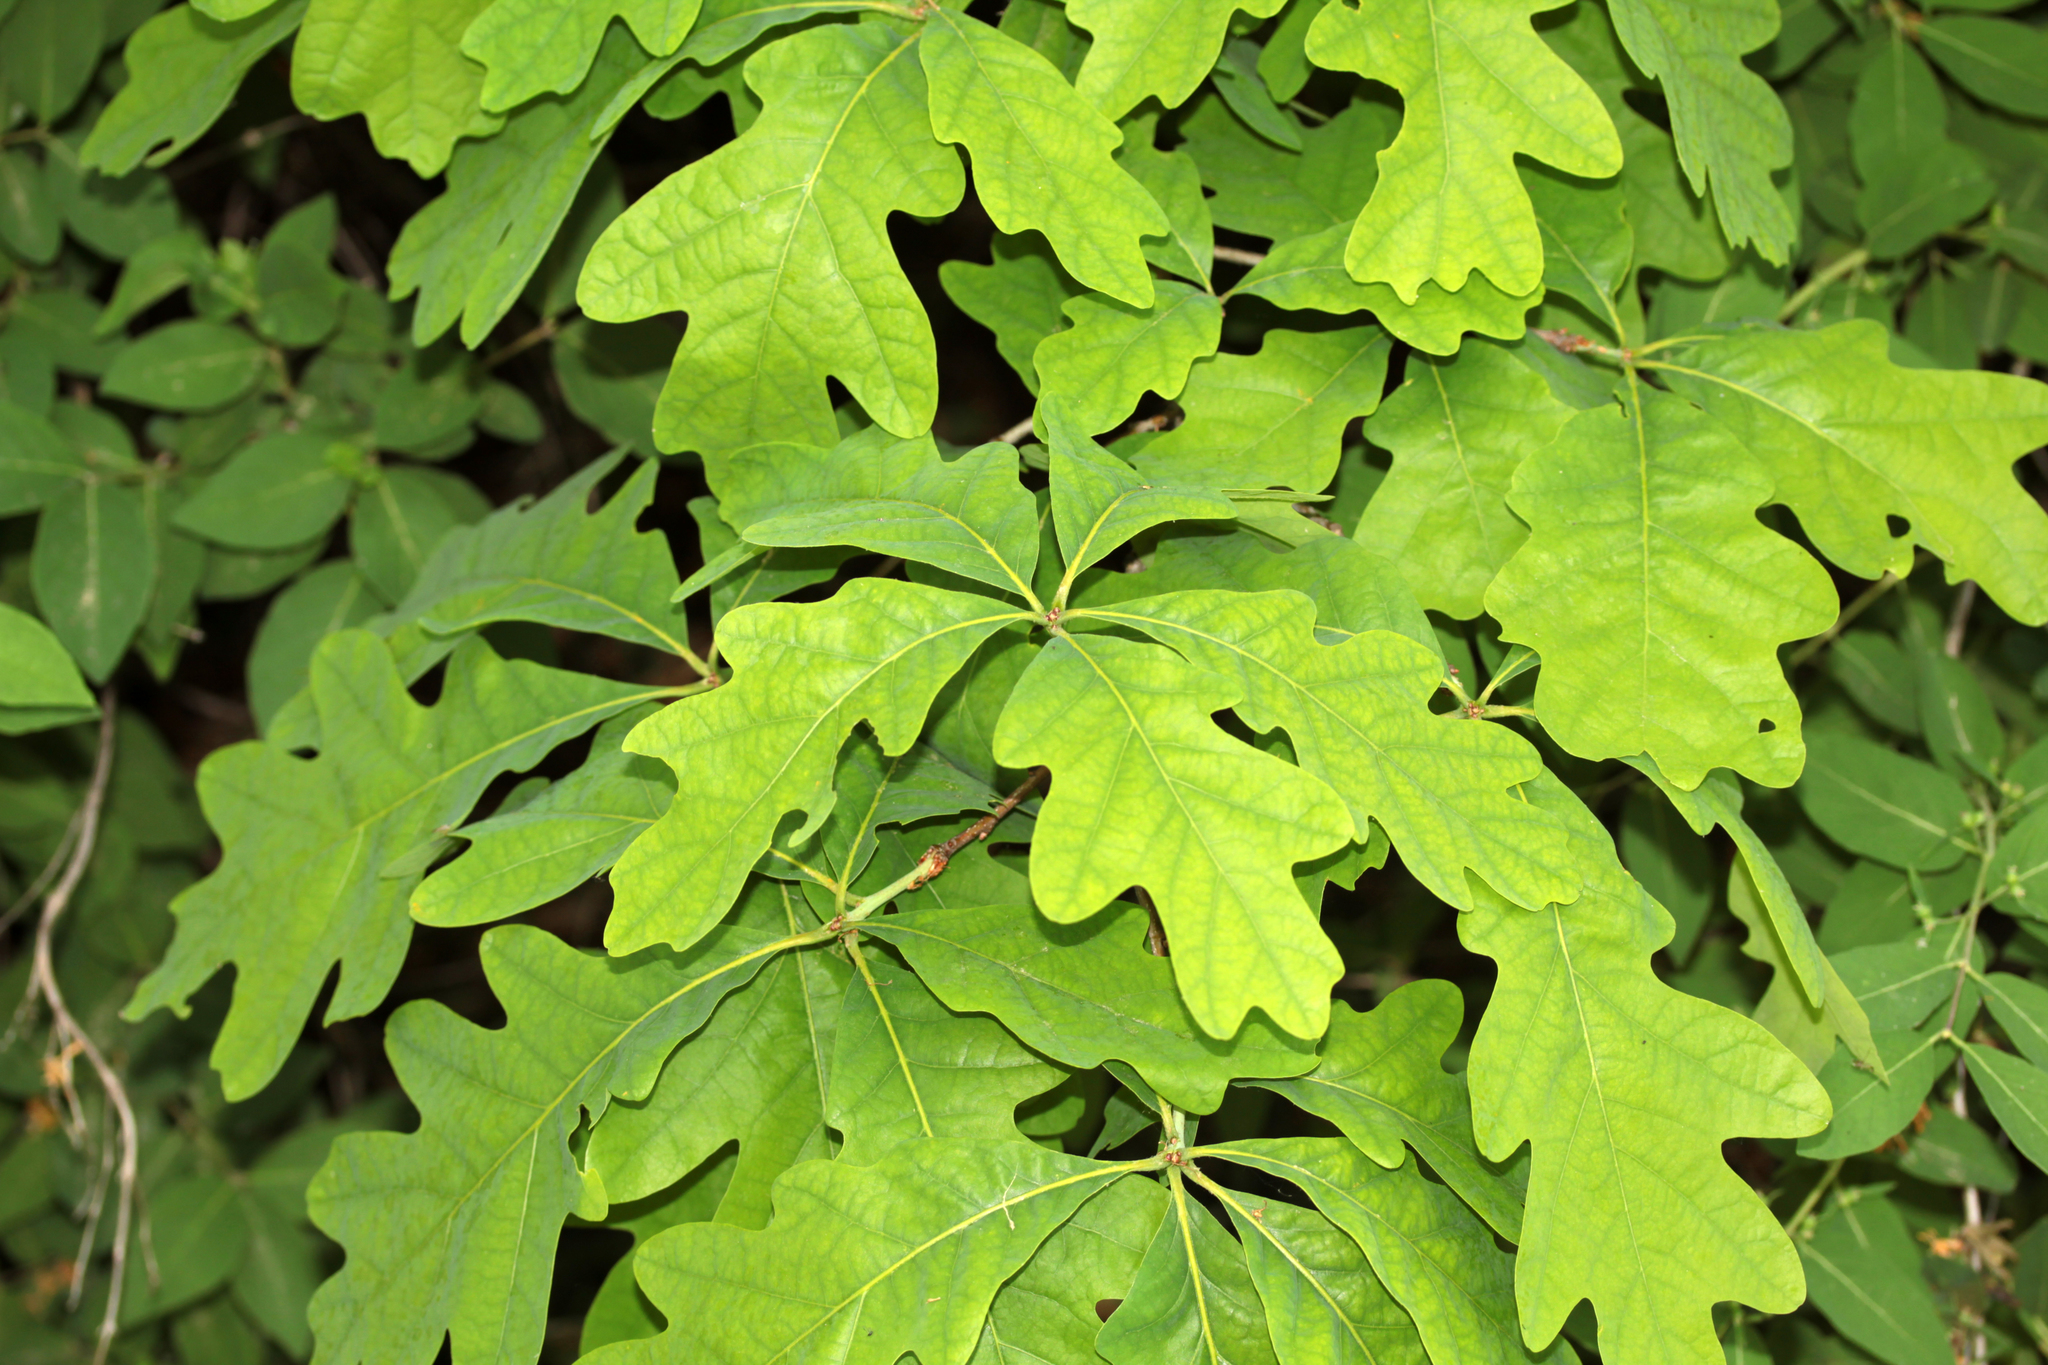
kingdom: Plantae
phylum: Tracheophyta
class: Magnoliopsida
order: Fagales
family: Fagaceae
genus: Quercus
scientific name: Quercus alba
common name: White oak
